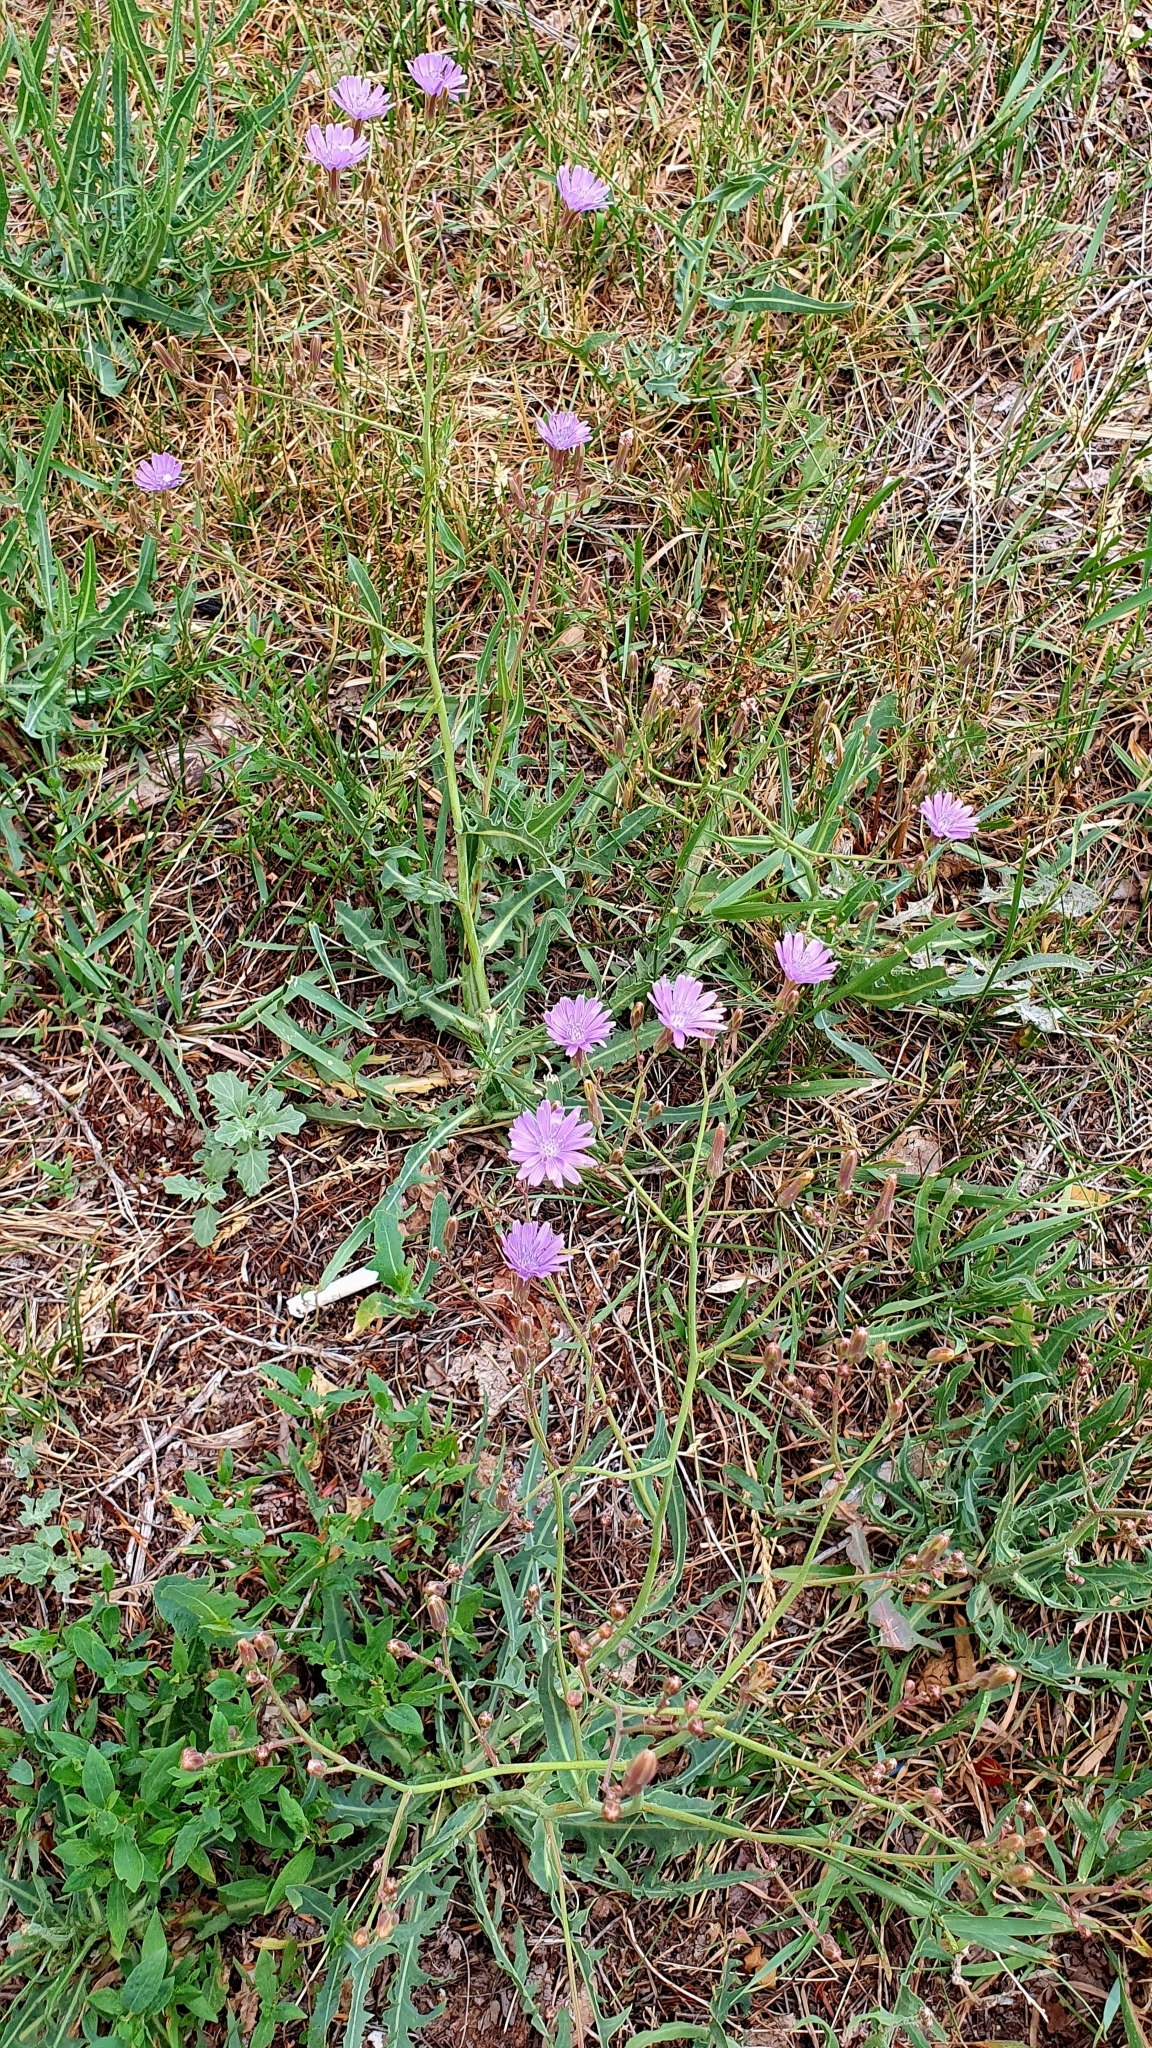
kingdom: Plantae
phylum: Tracheophyta
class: Magnoliopsida
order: Asterales
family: Asteraceae
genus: Lactuca
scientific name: Lactuca tatarica
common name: Blue lettuce
